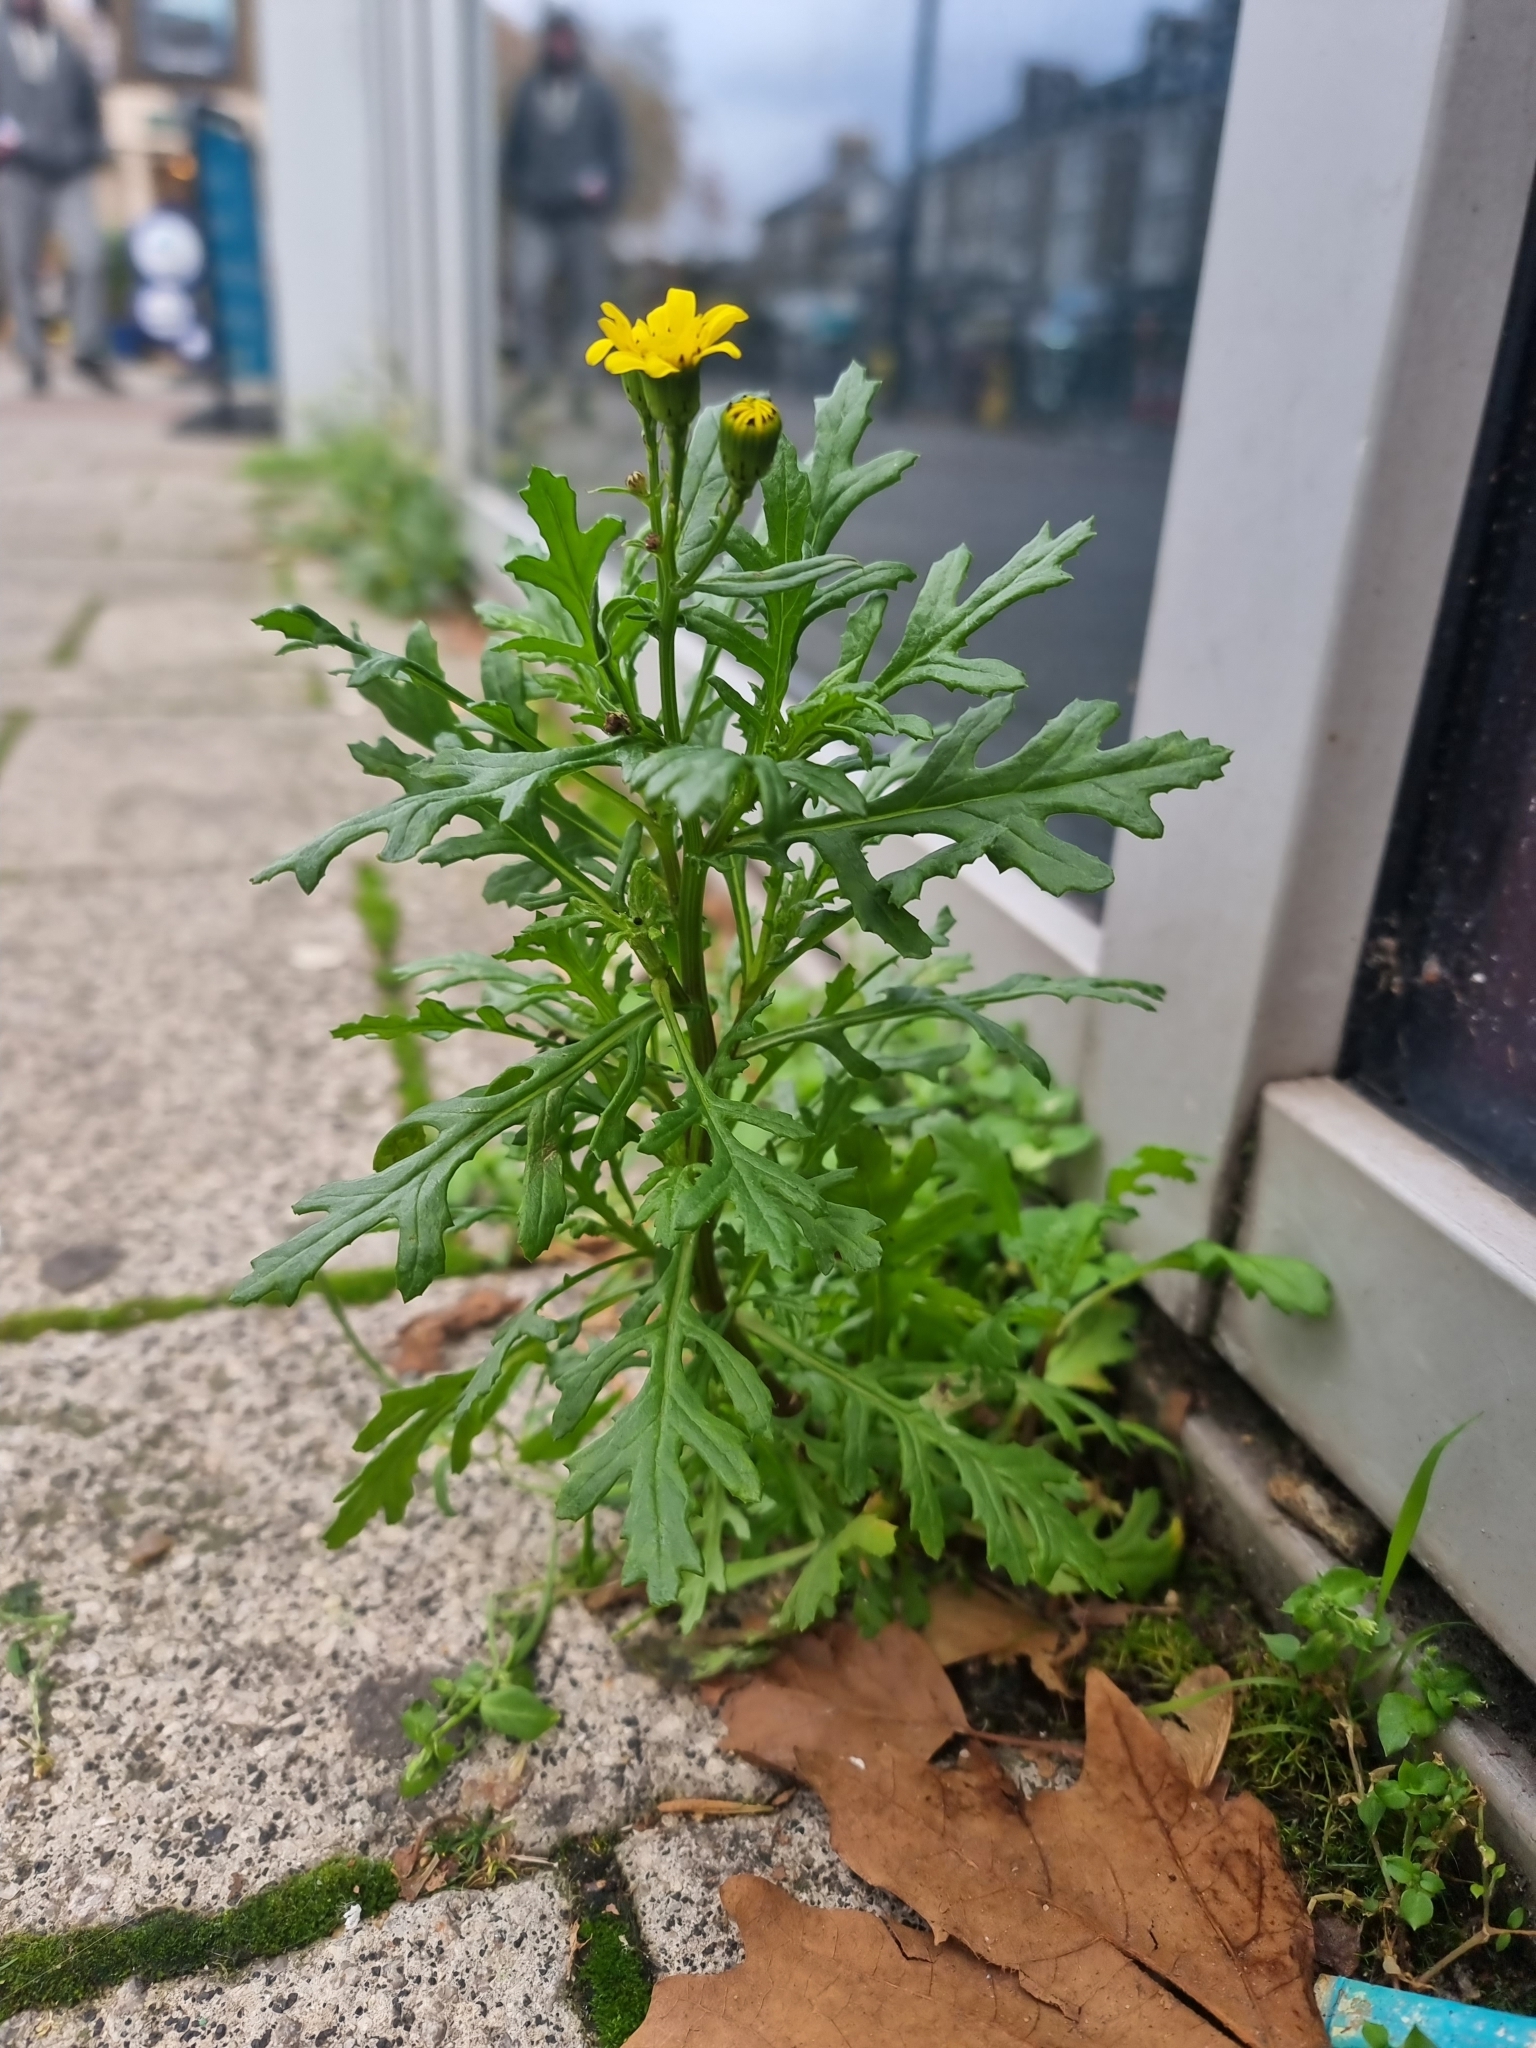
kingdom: Plantae
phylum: Tracheophyta
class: Magnoliopsida
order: Asterales
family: Asteraceae
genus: Senecio
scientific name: Senecio squalidus
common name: Oxford ragwort
